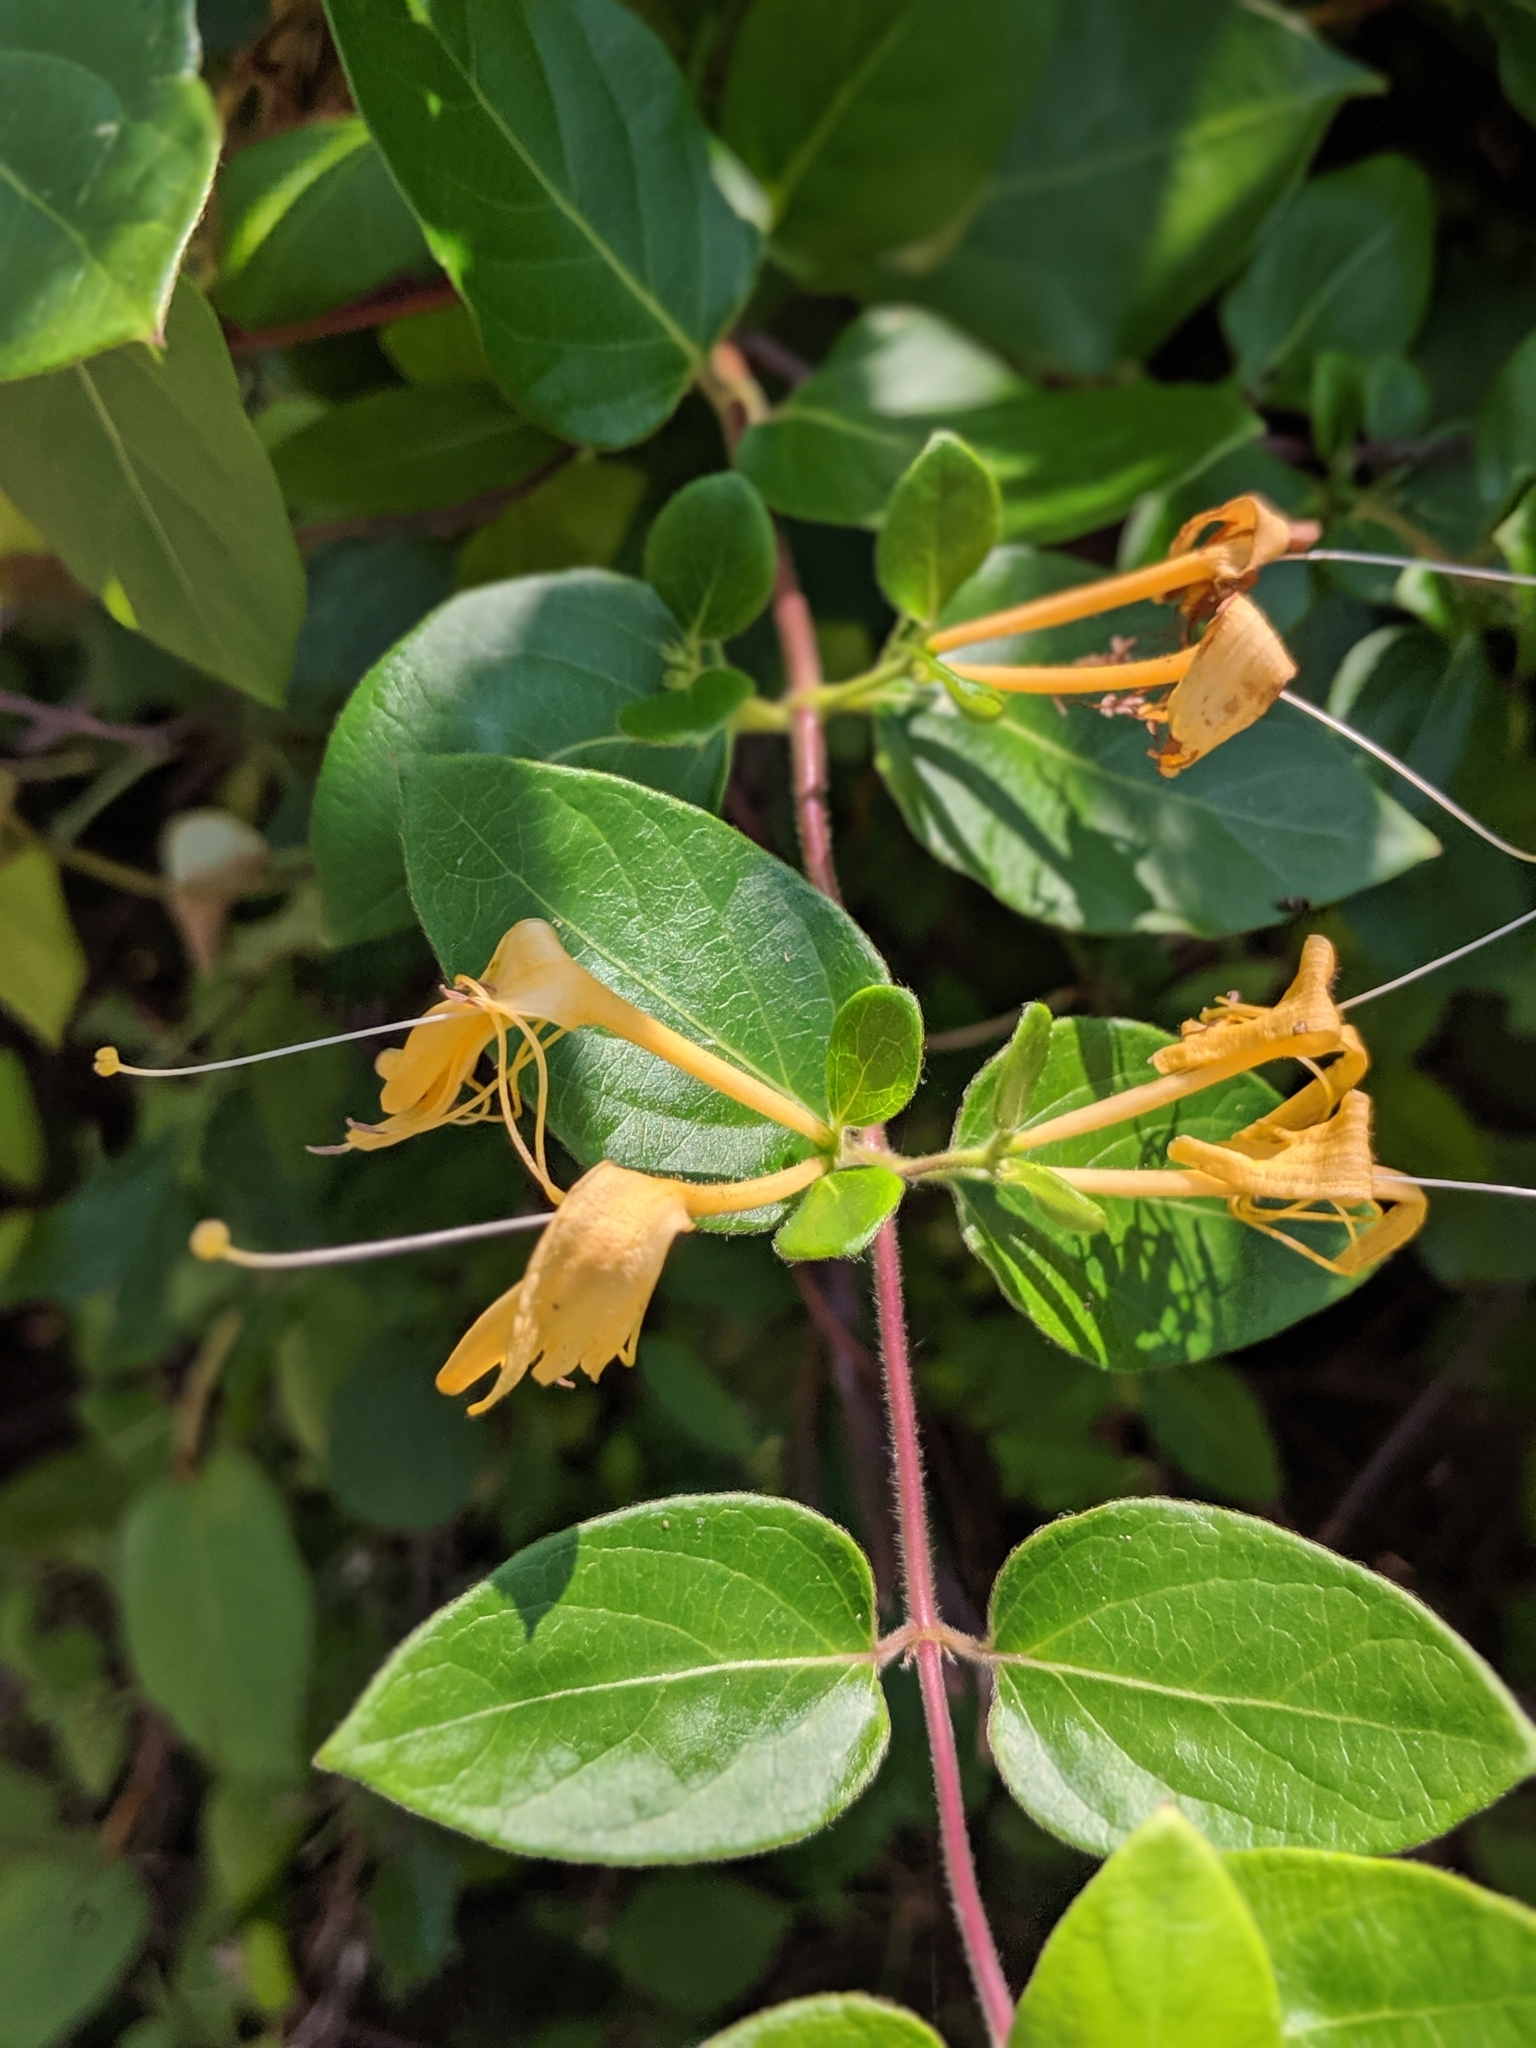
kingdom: Plantae
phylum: Tracheophyta
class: Magnoliopsida
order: Dipsacales
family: Caprifoliaceae
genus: Lonicera
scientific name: Lonicera japonica
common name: Japanese honeysuckle
